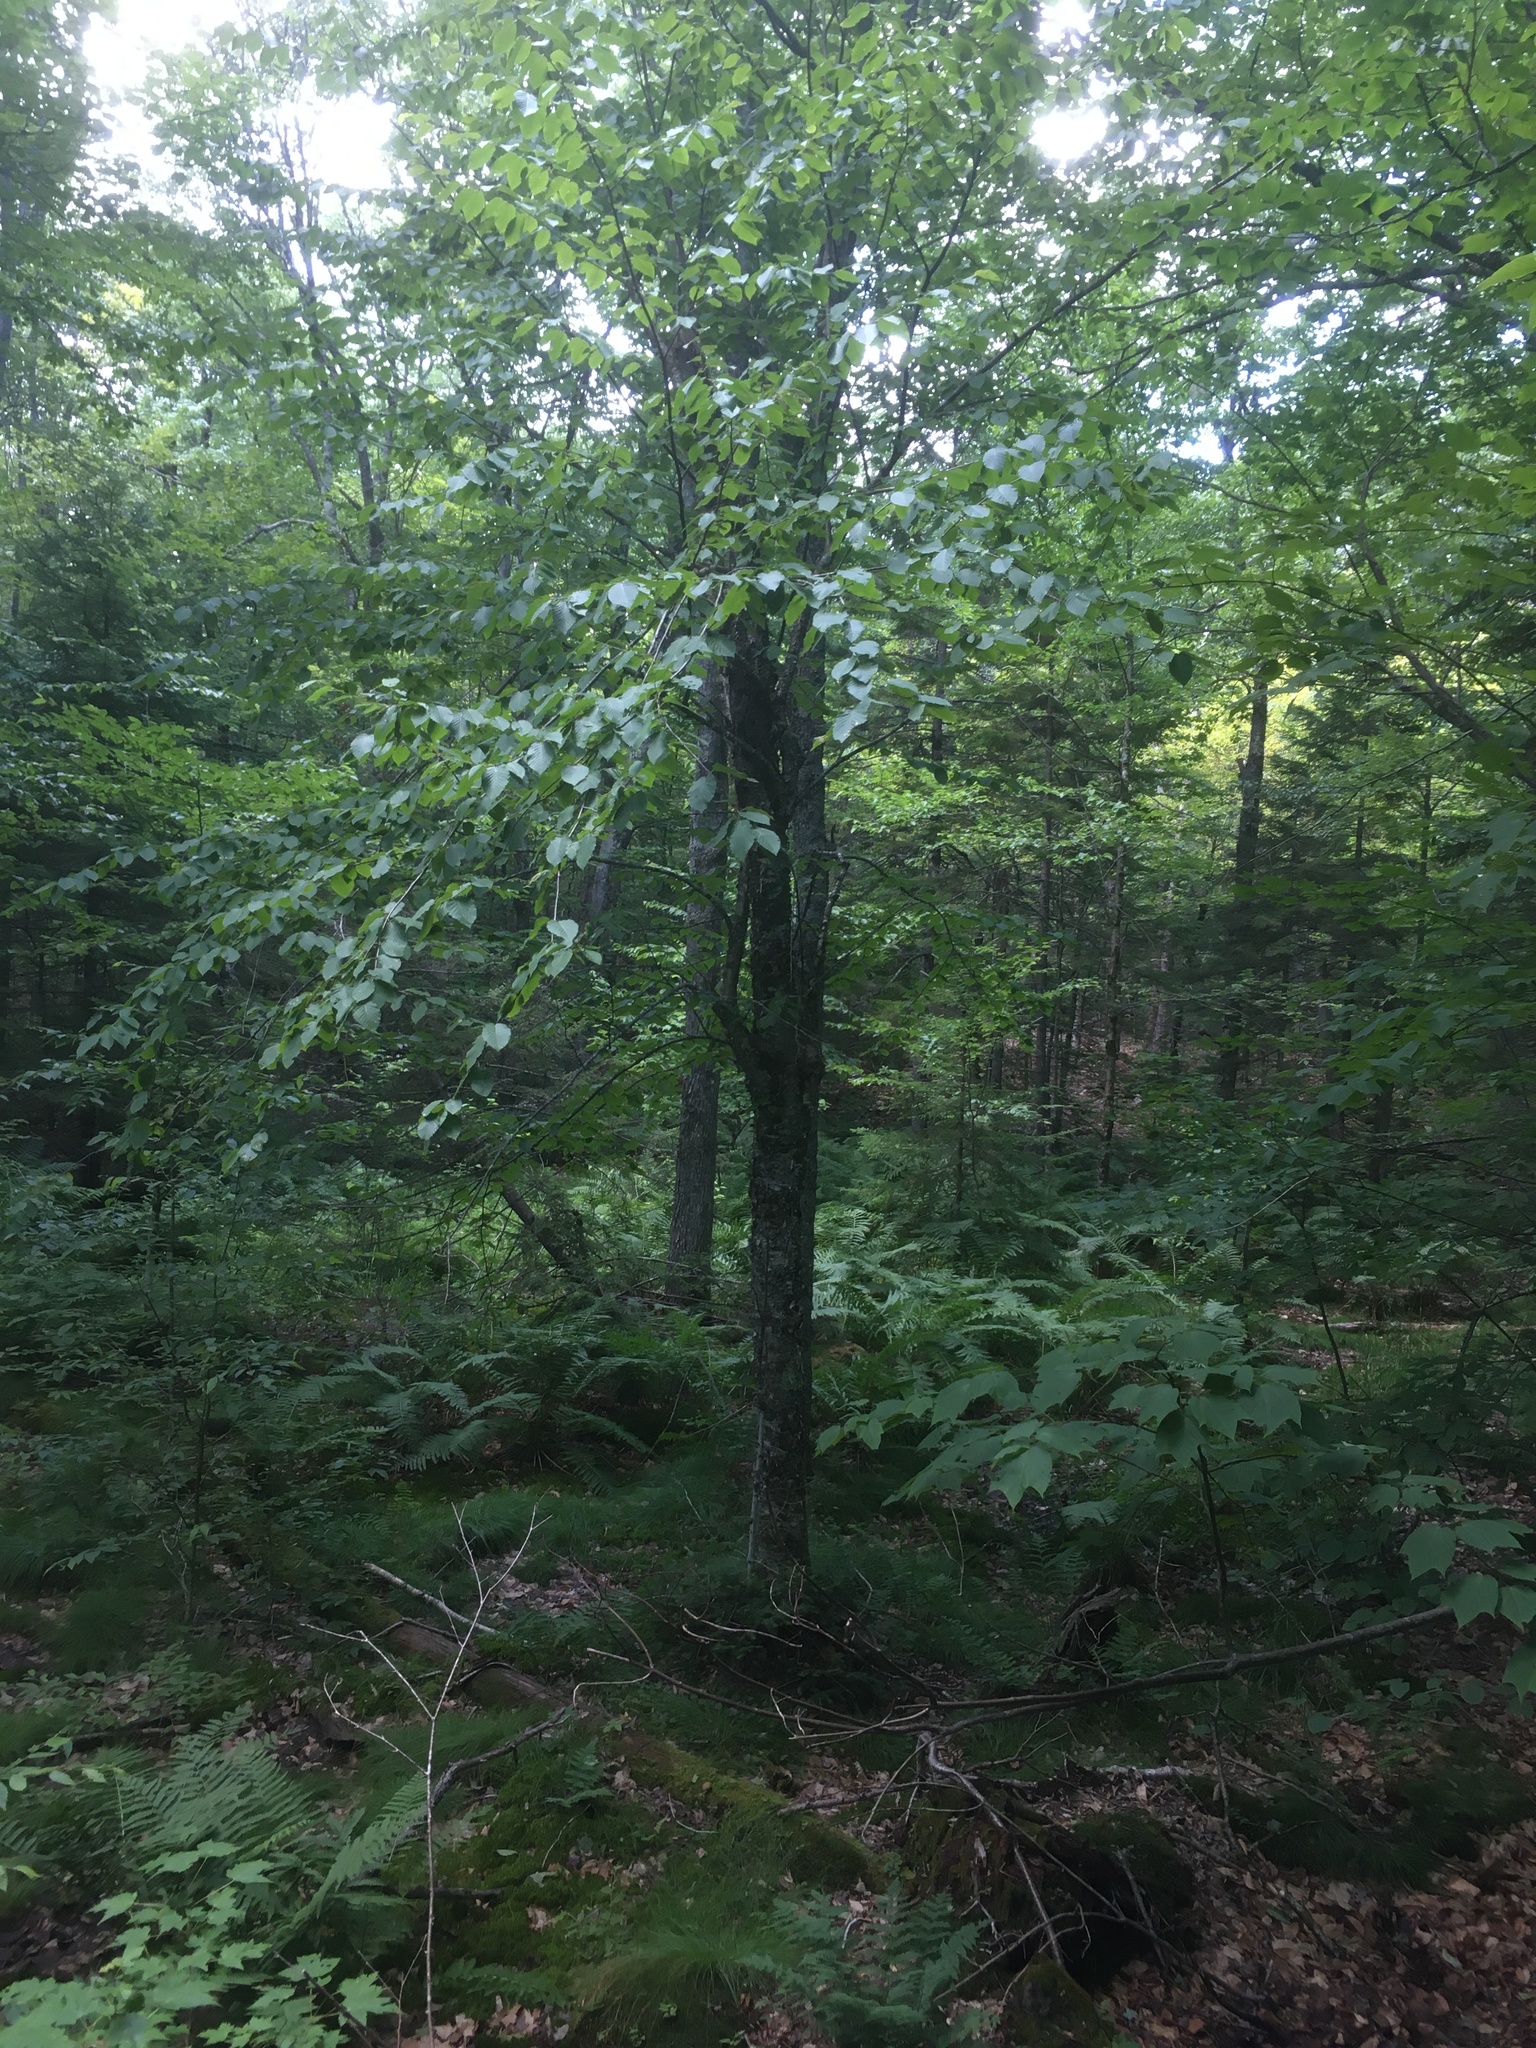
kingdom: Plantae
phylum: Tracheophyta
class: Magnoliopsida
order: Fagales
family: Betulaceae
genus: Betula
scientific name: Betula alleghaniensis
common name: Yellow birch
